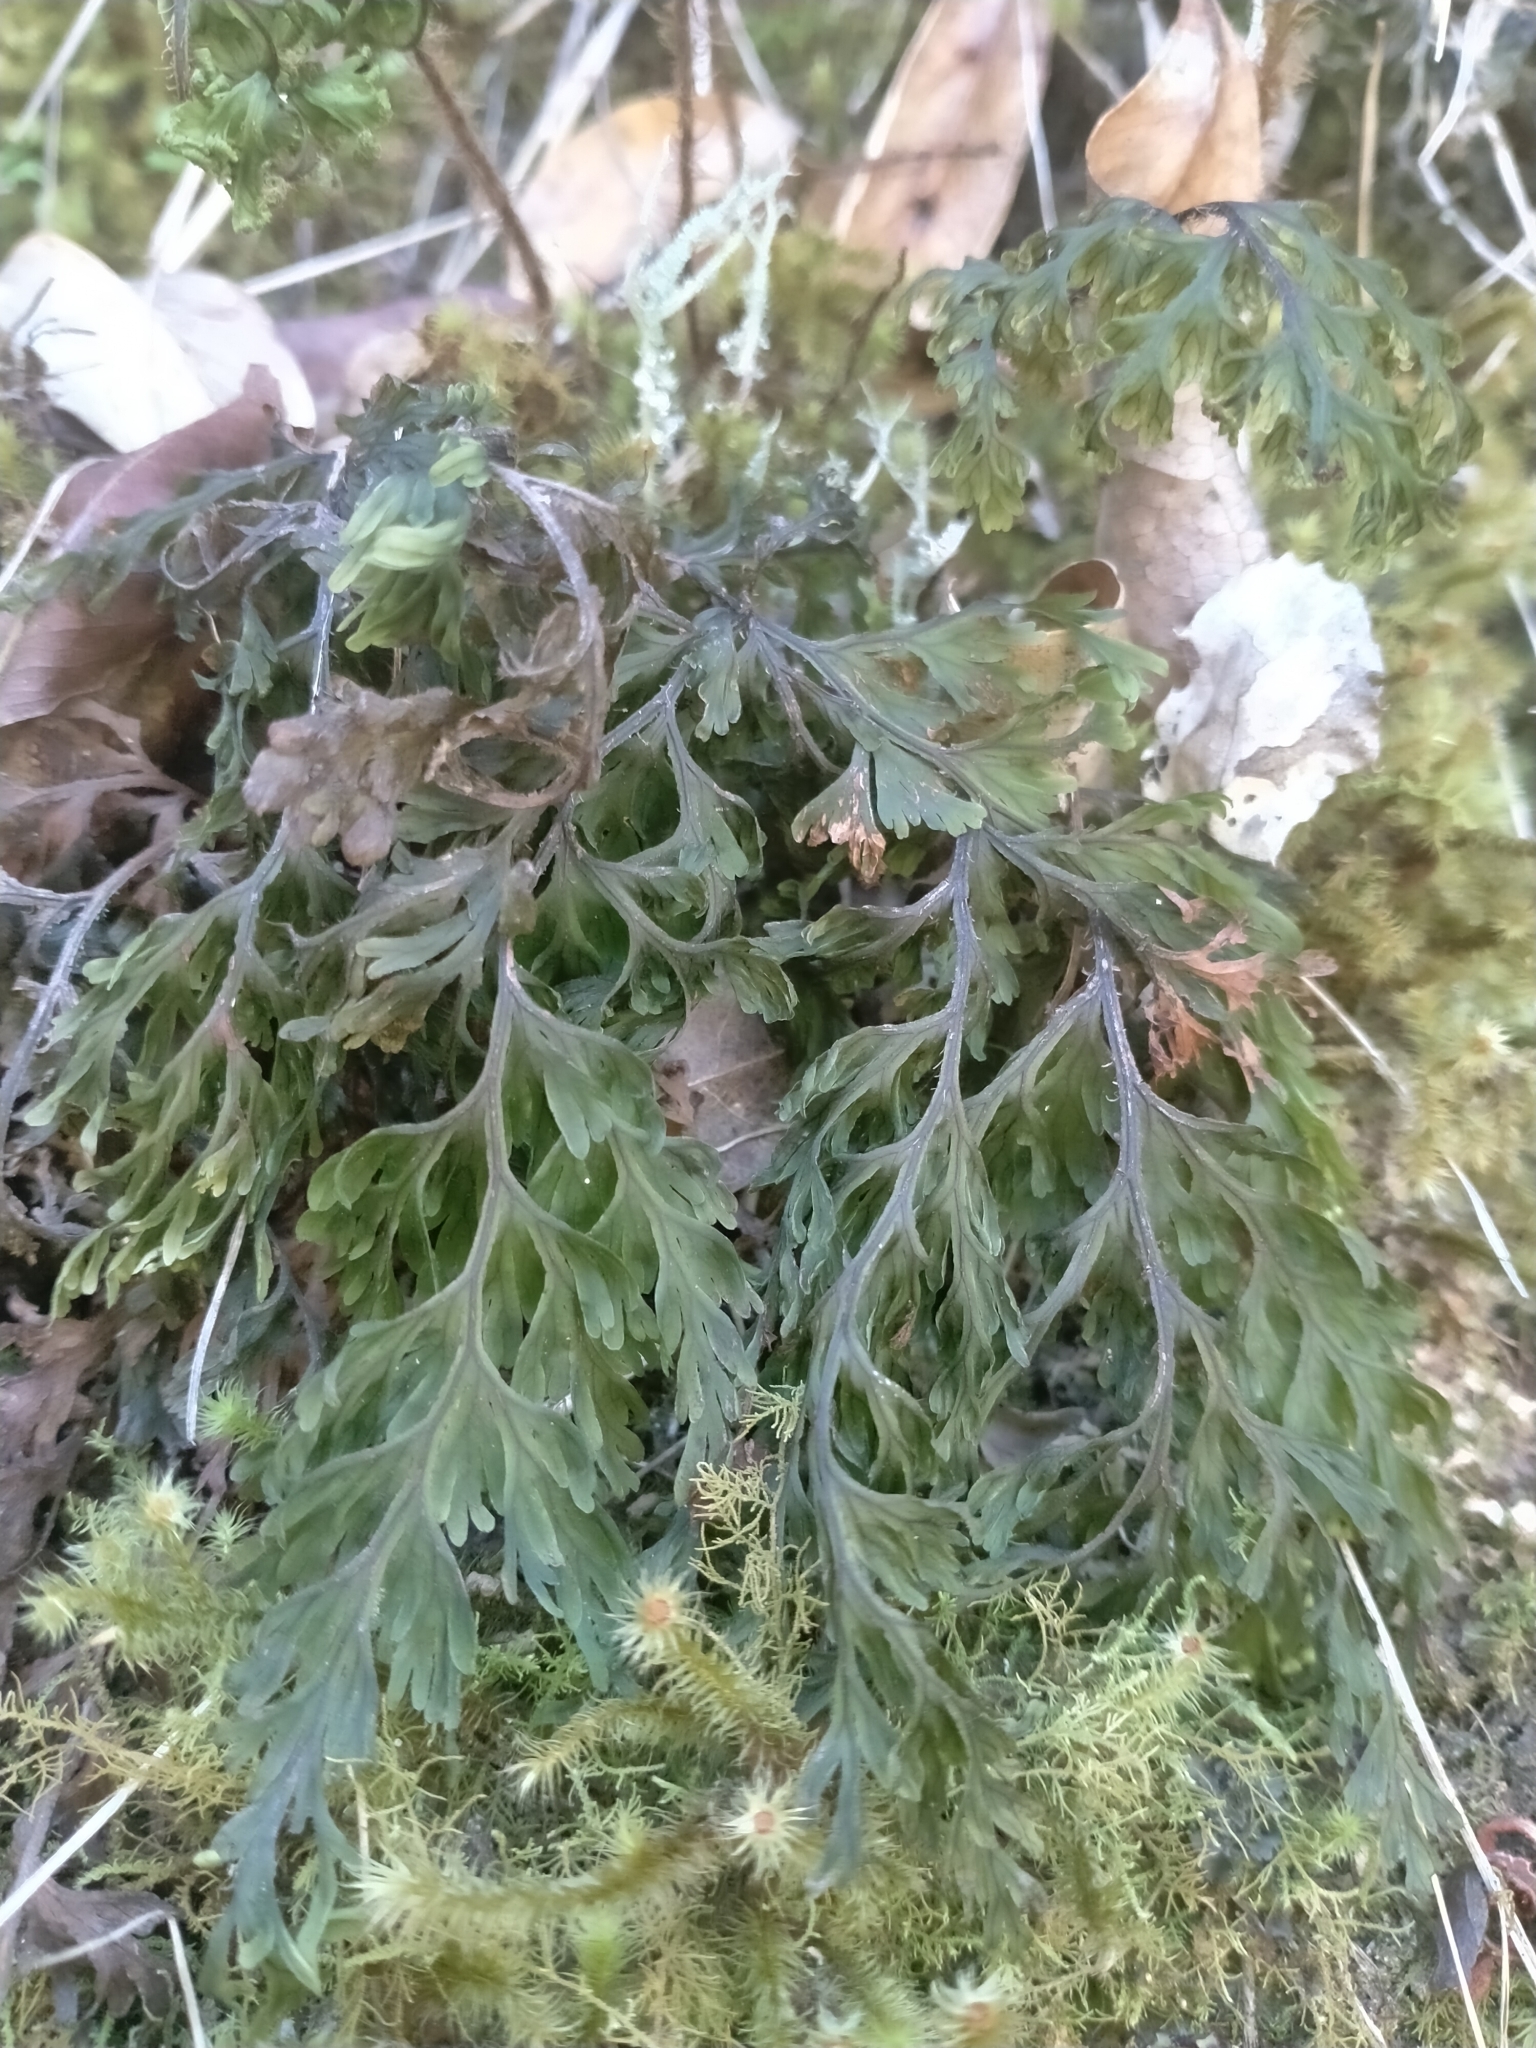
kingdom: Plantae
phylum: Tracheophyta
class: Polypodiopsida
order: Hymenophyllales
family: Hymenophyllaceae
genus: Hymenophyllum
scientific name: Hymenophyllum scabrum
